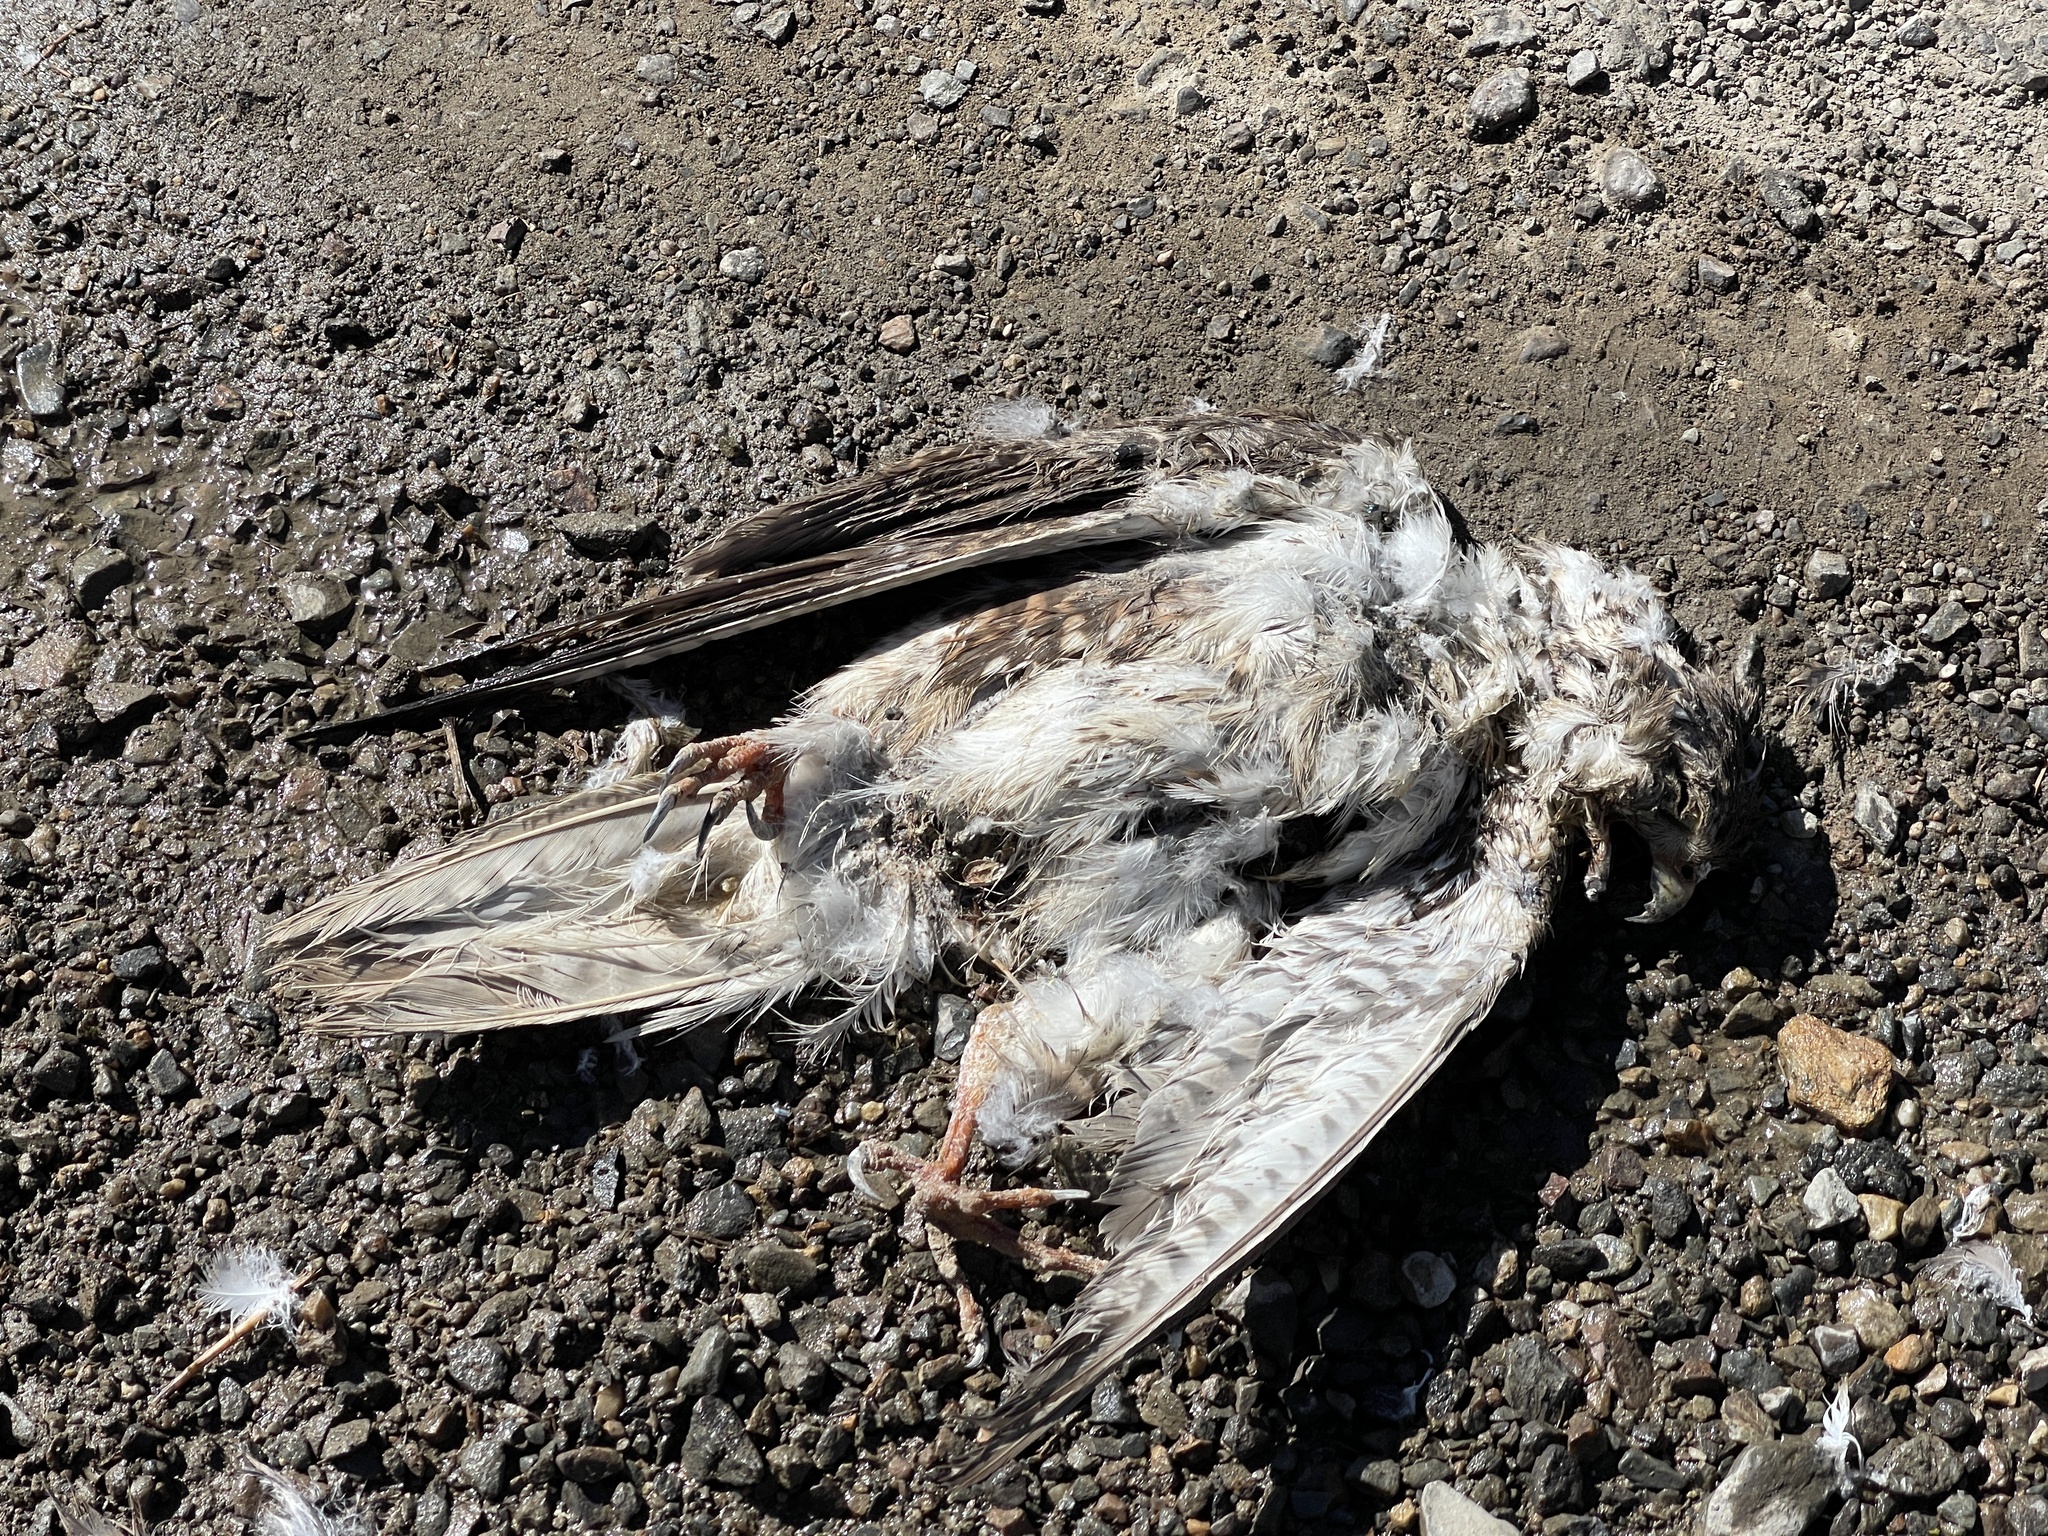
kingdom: Animalia
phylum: Chordata
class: Aves
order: Falconiformes
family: Falconidae
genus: Falco
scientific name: Falco mexicanus
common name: Prairie falcon
